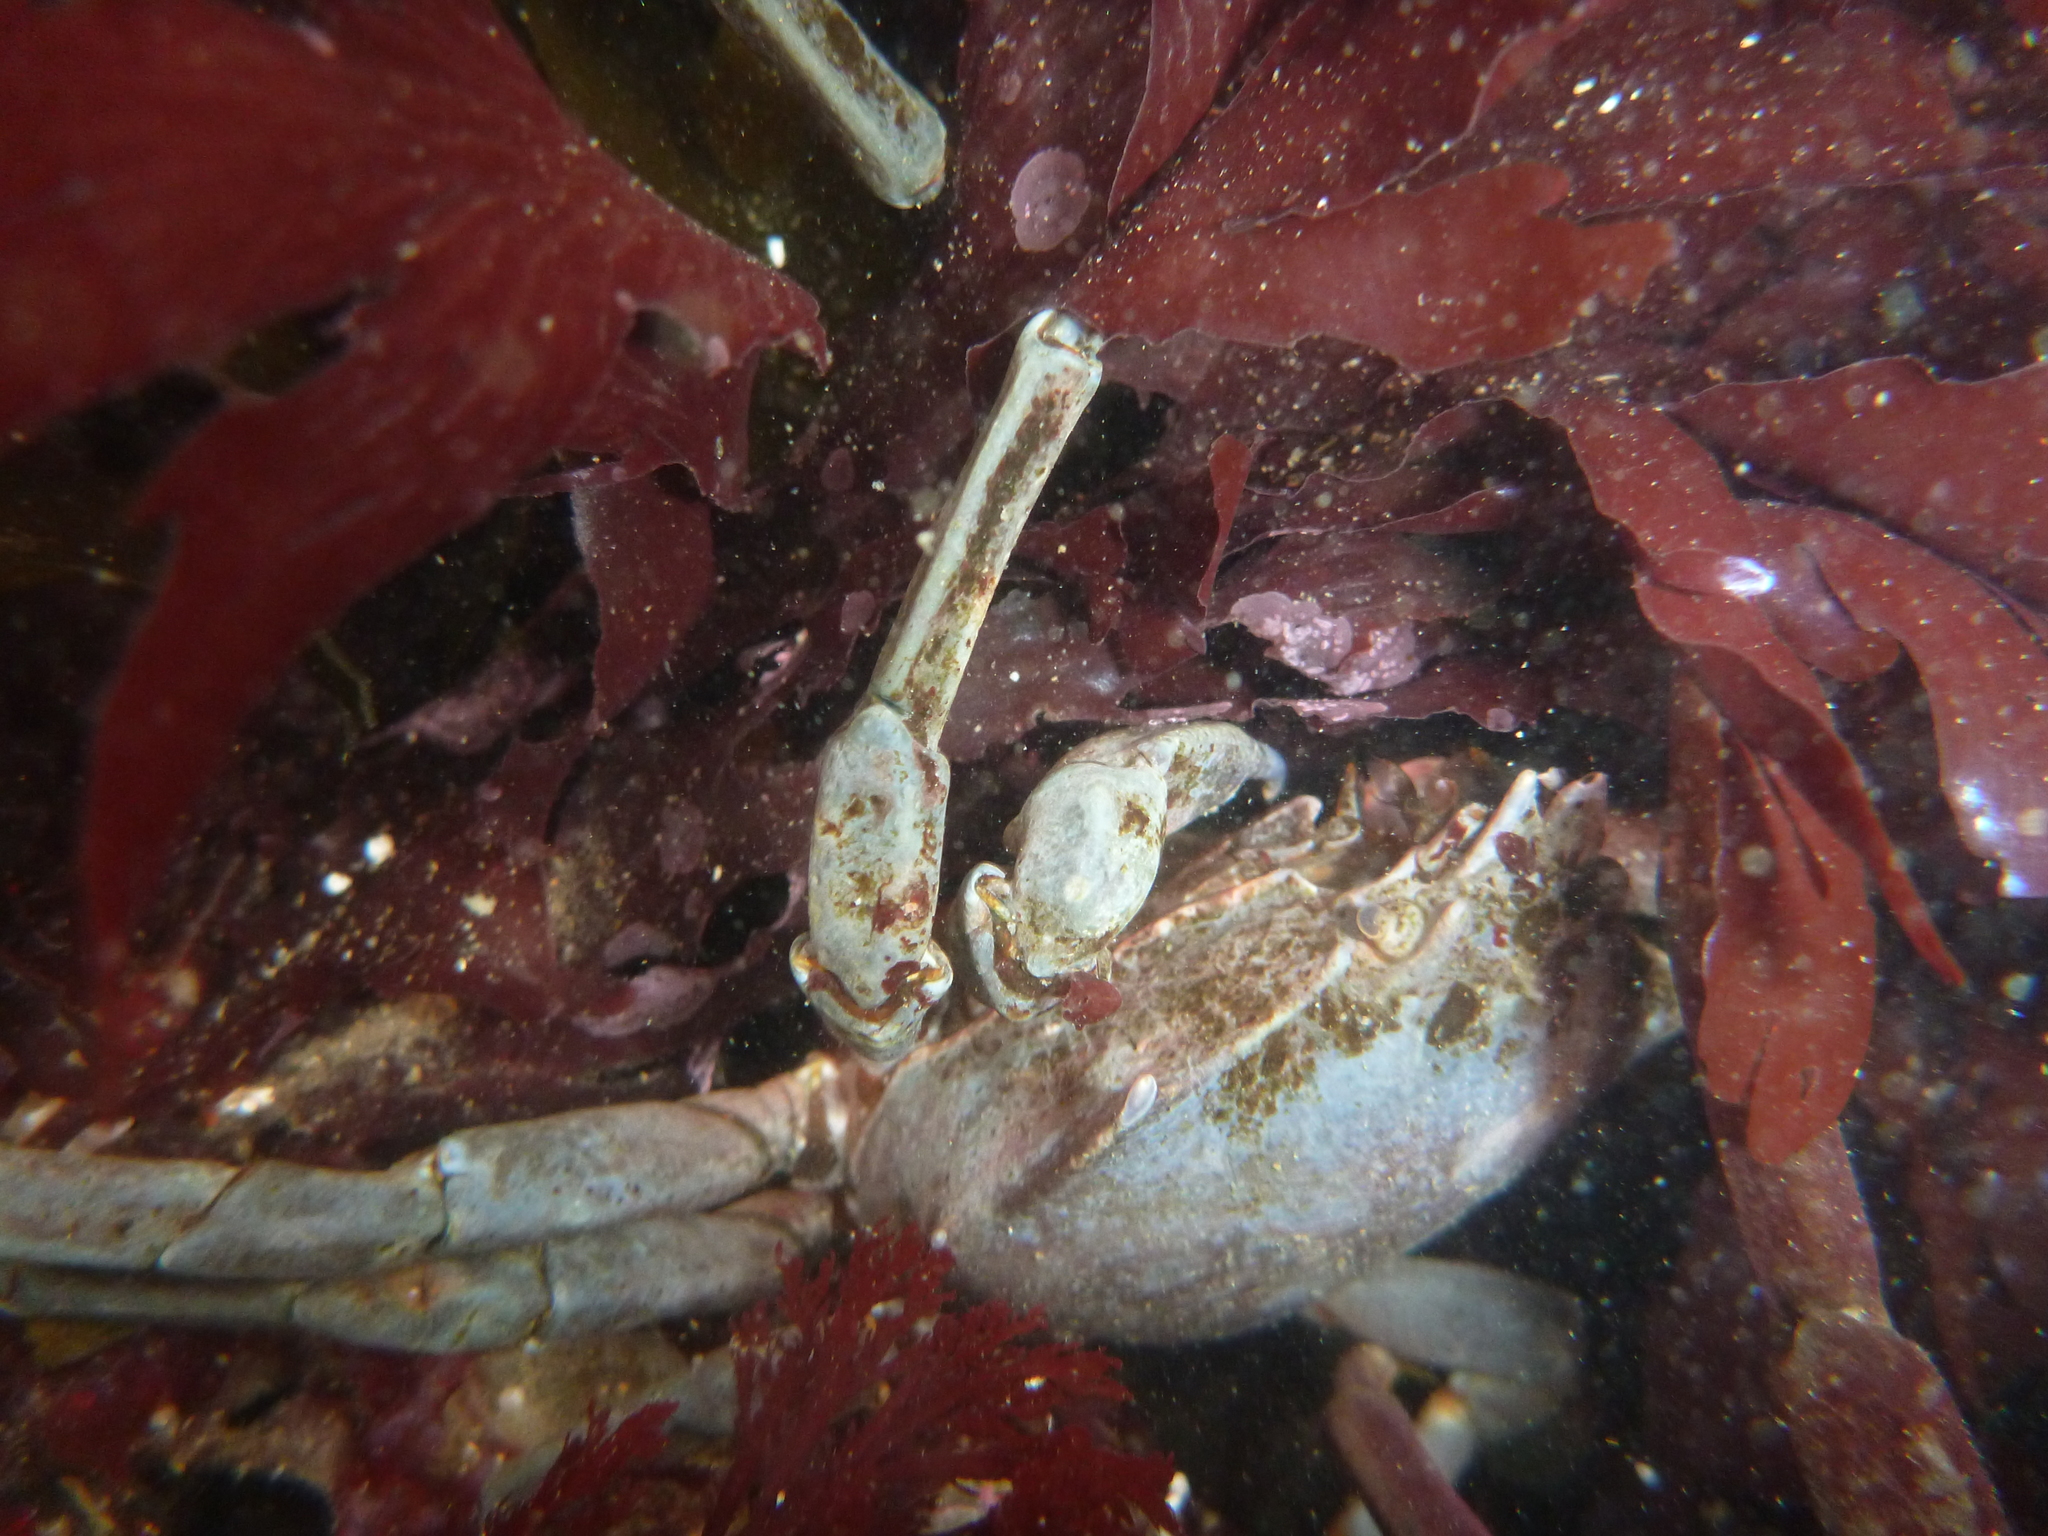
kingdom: Animalia
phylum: Arthropoda
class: Malacostraca
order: Decapoda
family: Epialtidae
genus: Pugettia
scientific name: Pugettia producta
